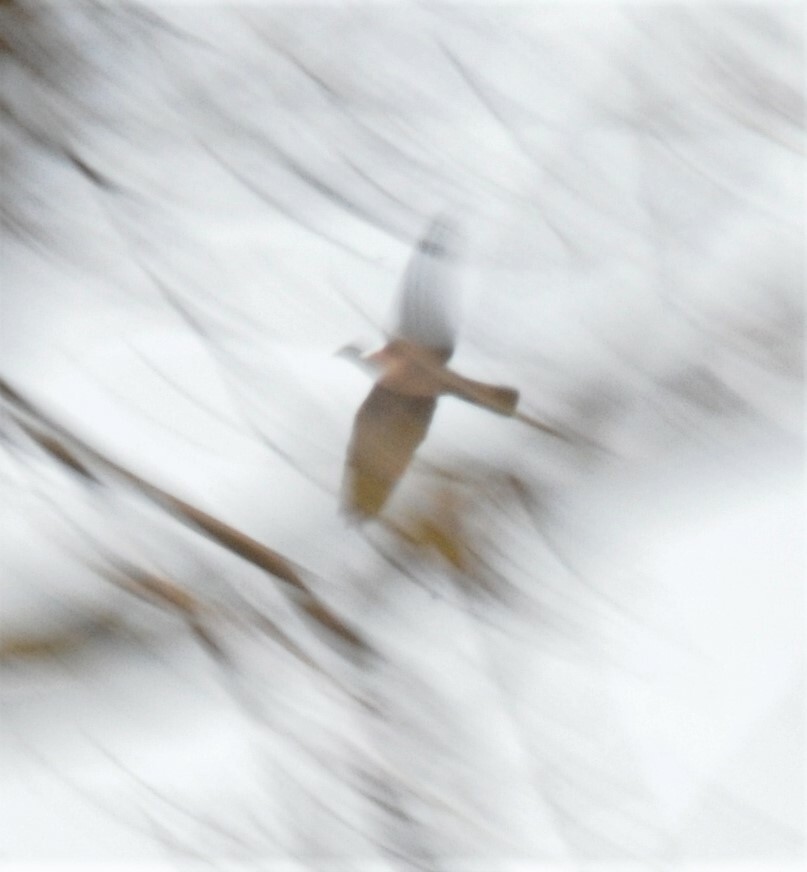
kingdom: Animalia
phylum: Chordata
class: Aves
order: Columbiformes
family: Columbidae
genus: Columba
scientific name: Columba palumbus
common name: Common wood pigeon
